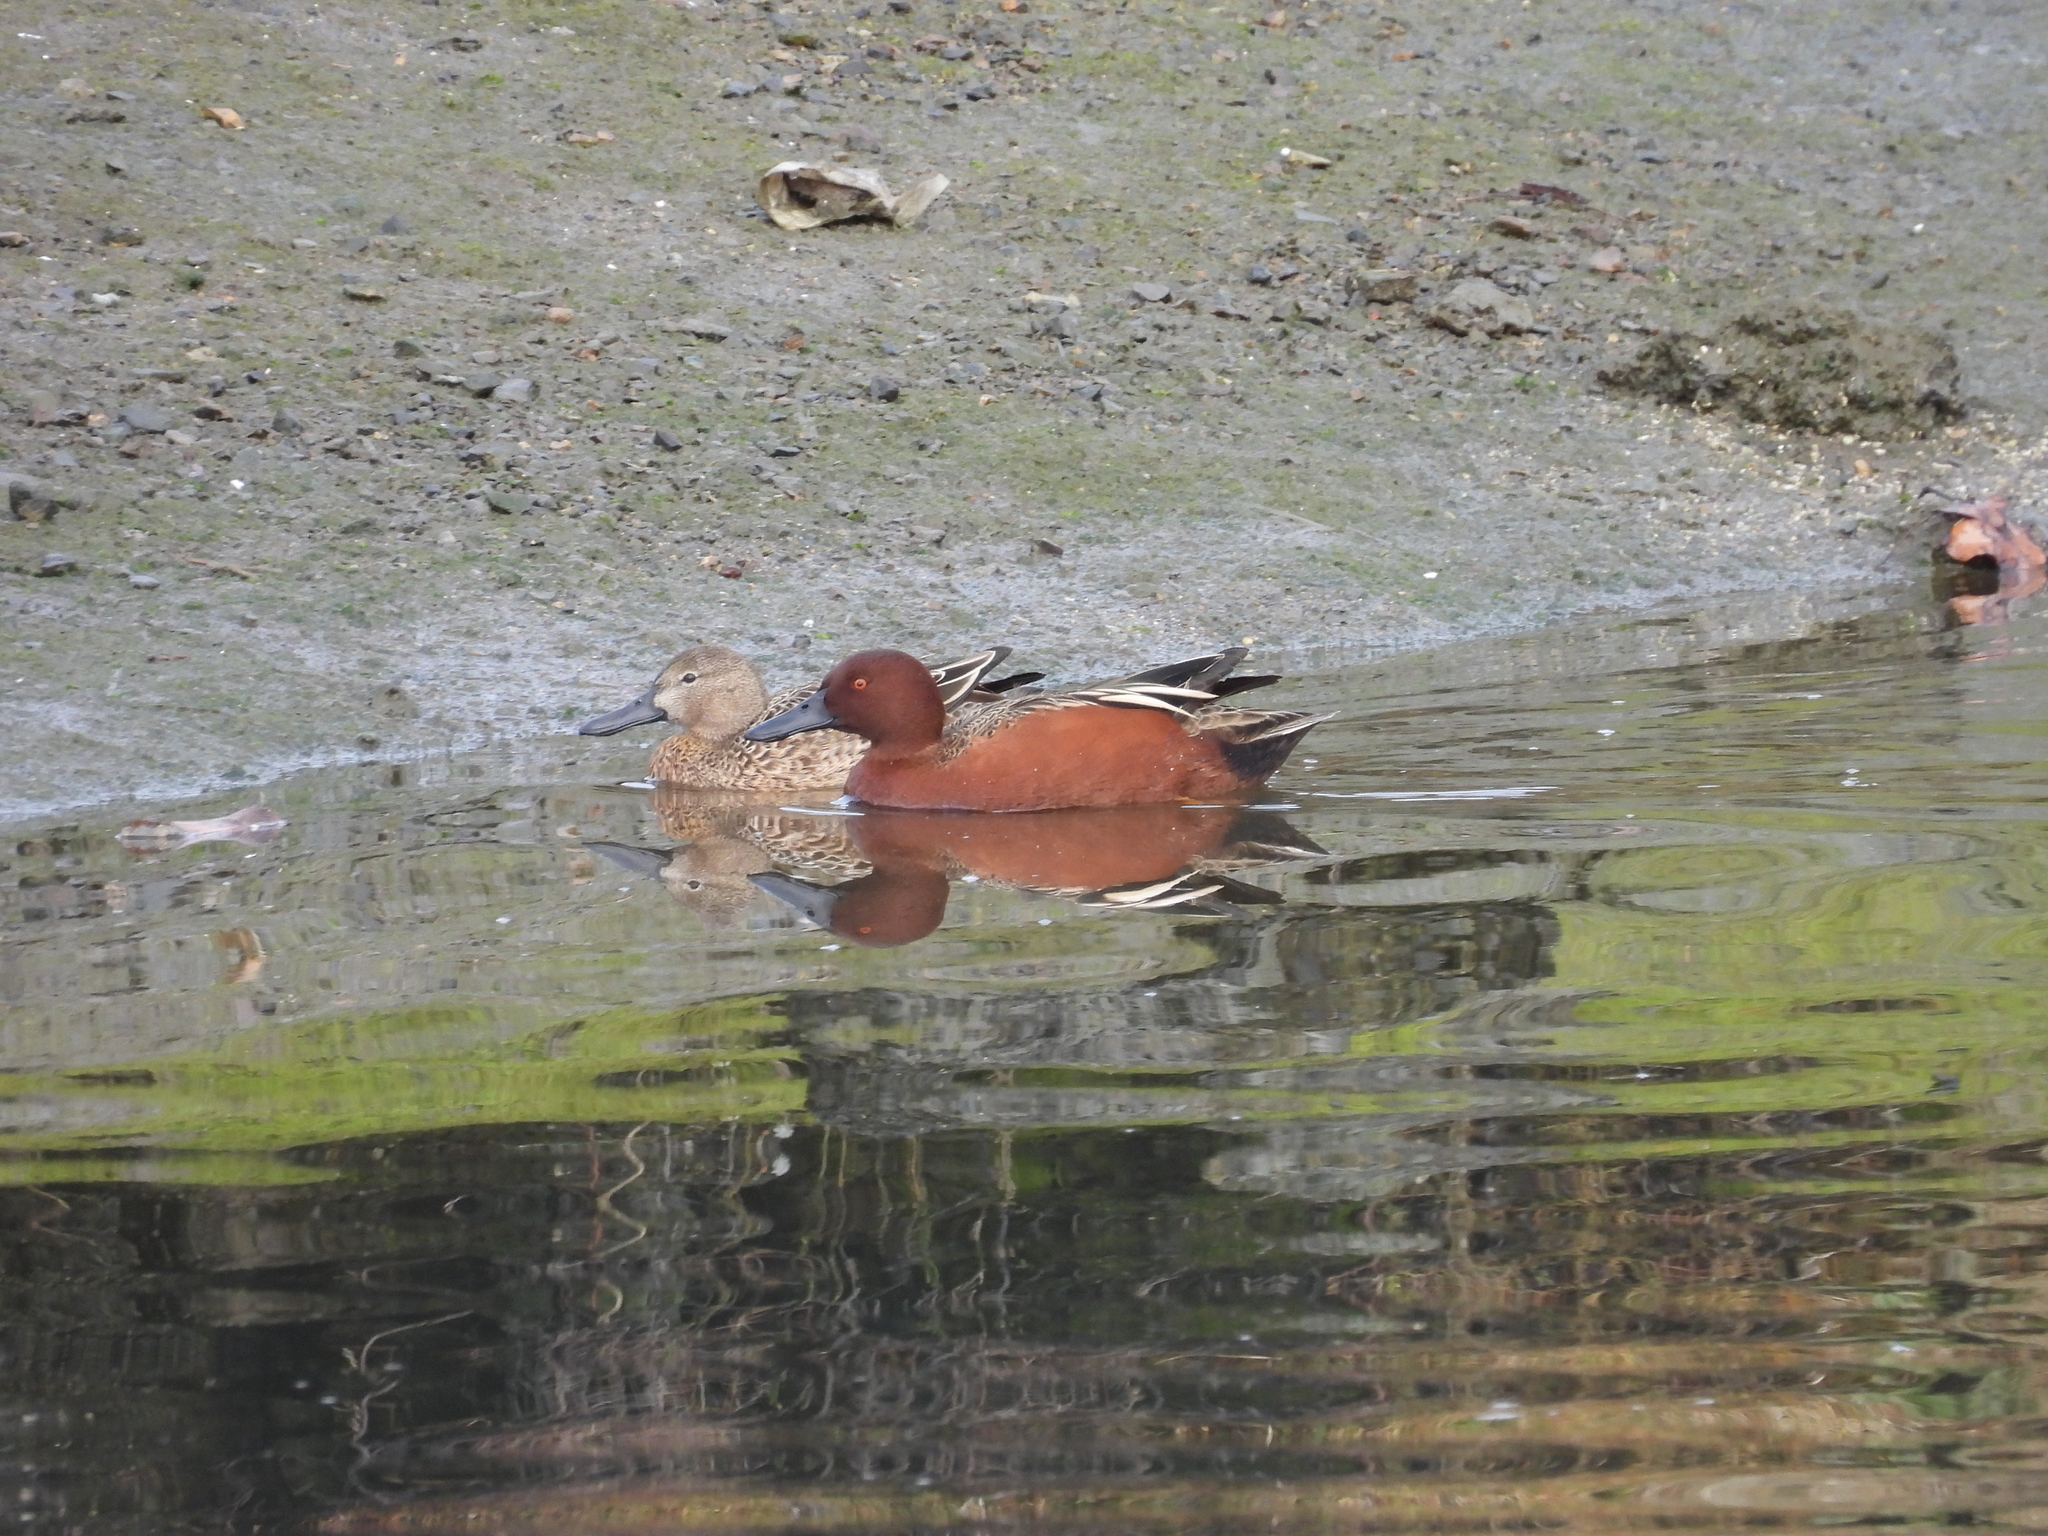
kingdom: Animalia
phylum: Chordata
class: Aves
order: Anseriformes
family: Anatidae
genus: Spatula
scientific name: Spatula cyanoptera
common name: Cinnamon teal
